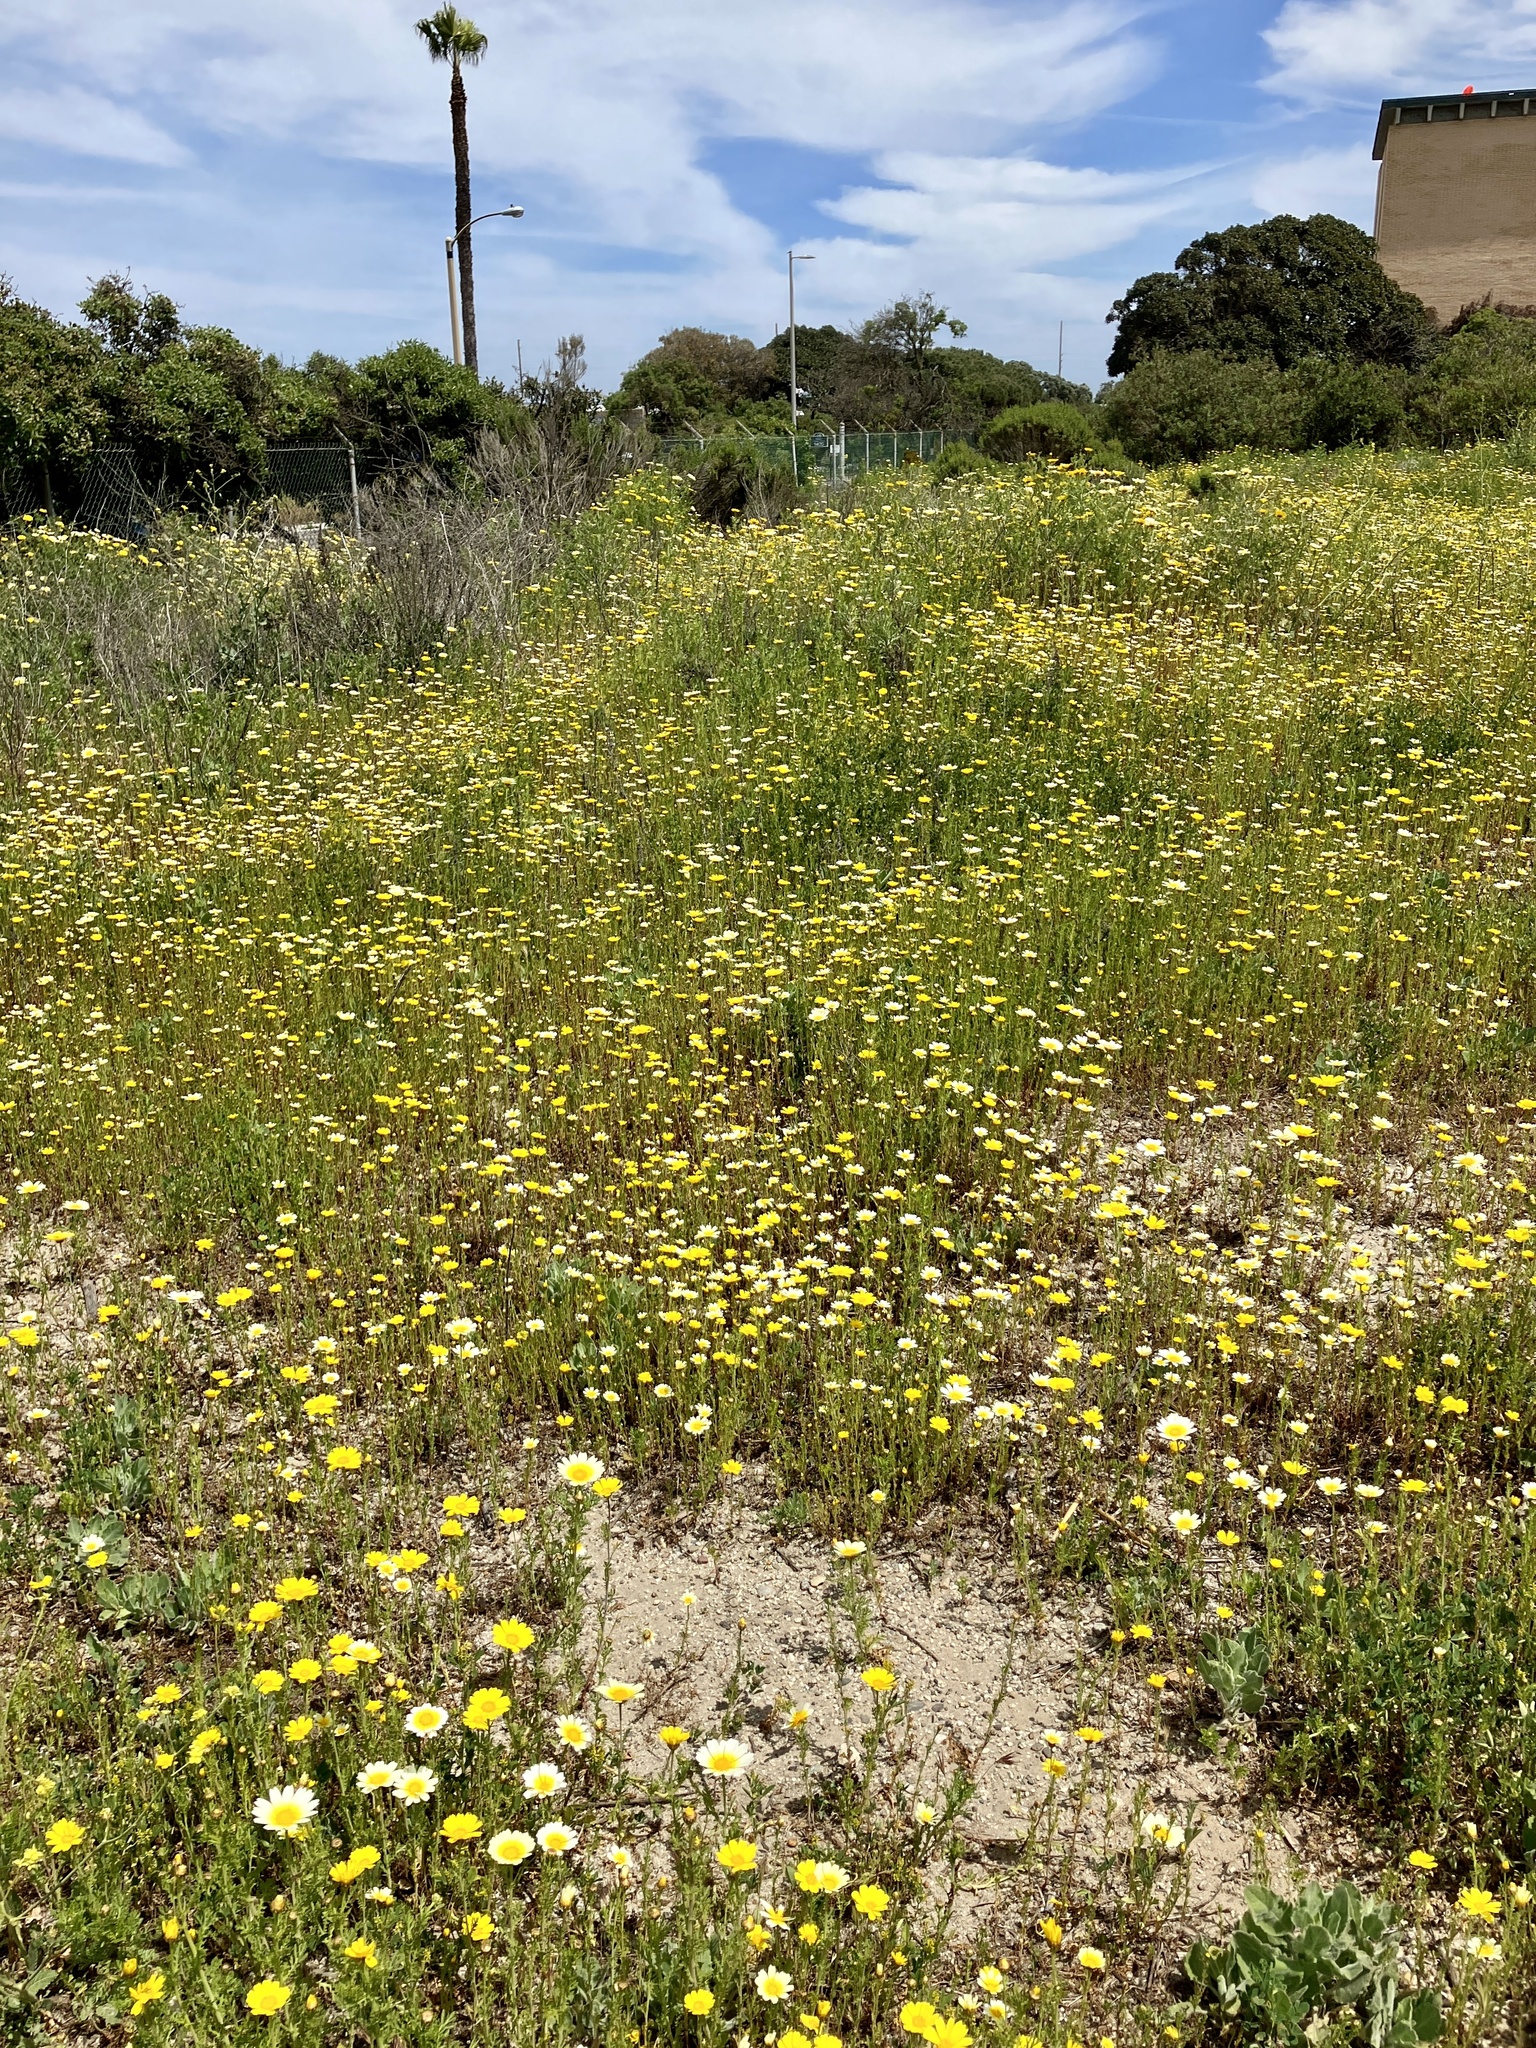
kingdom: Plantae
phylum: Tracheophyta
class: Magnoliopsida
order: Asterales
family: Asteraceae
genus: Glebionis
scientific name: Glebionis coronaria
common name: Crowndaisy
